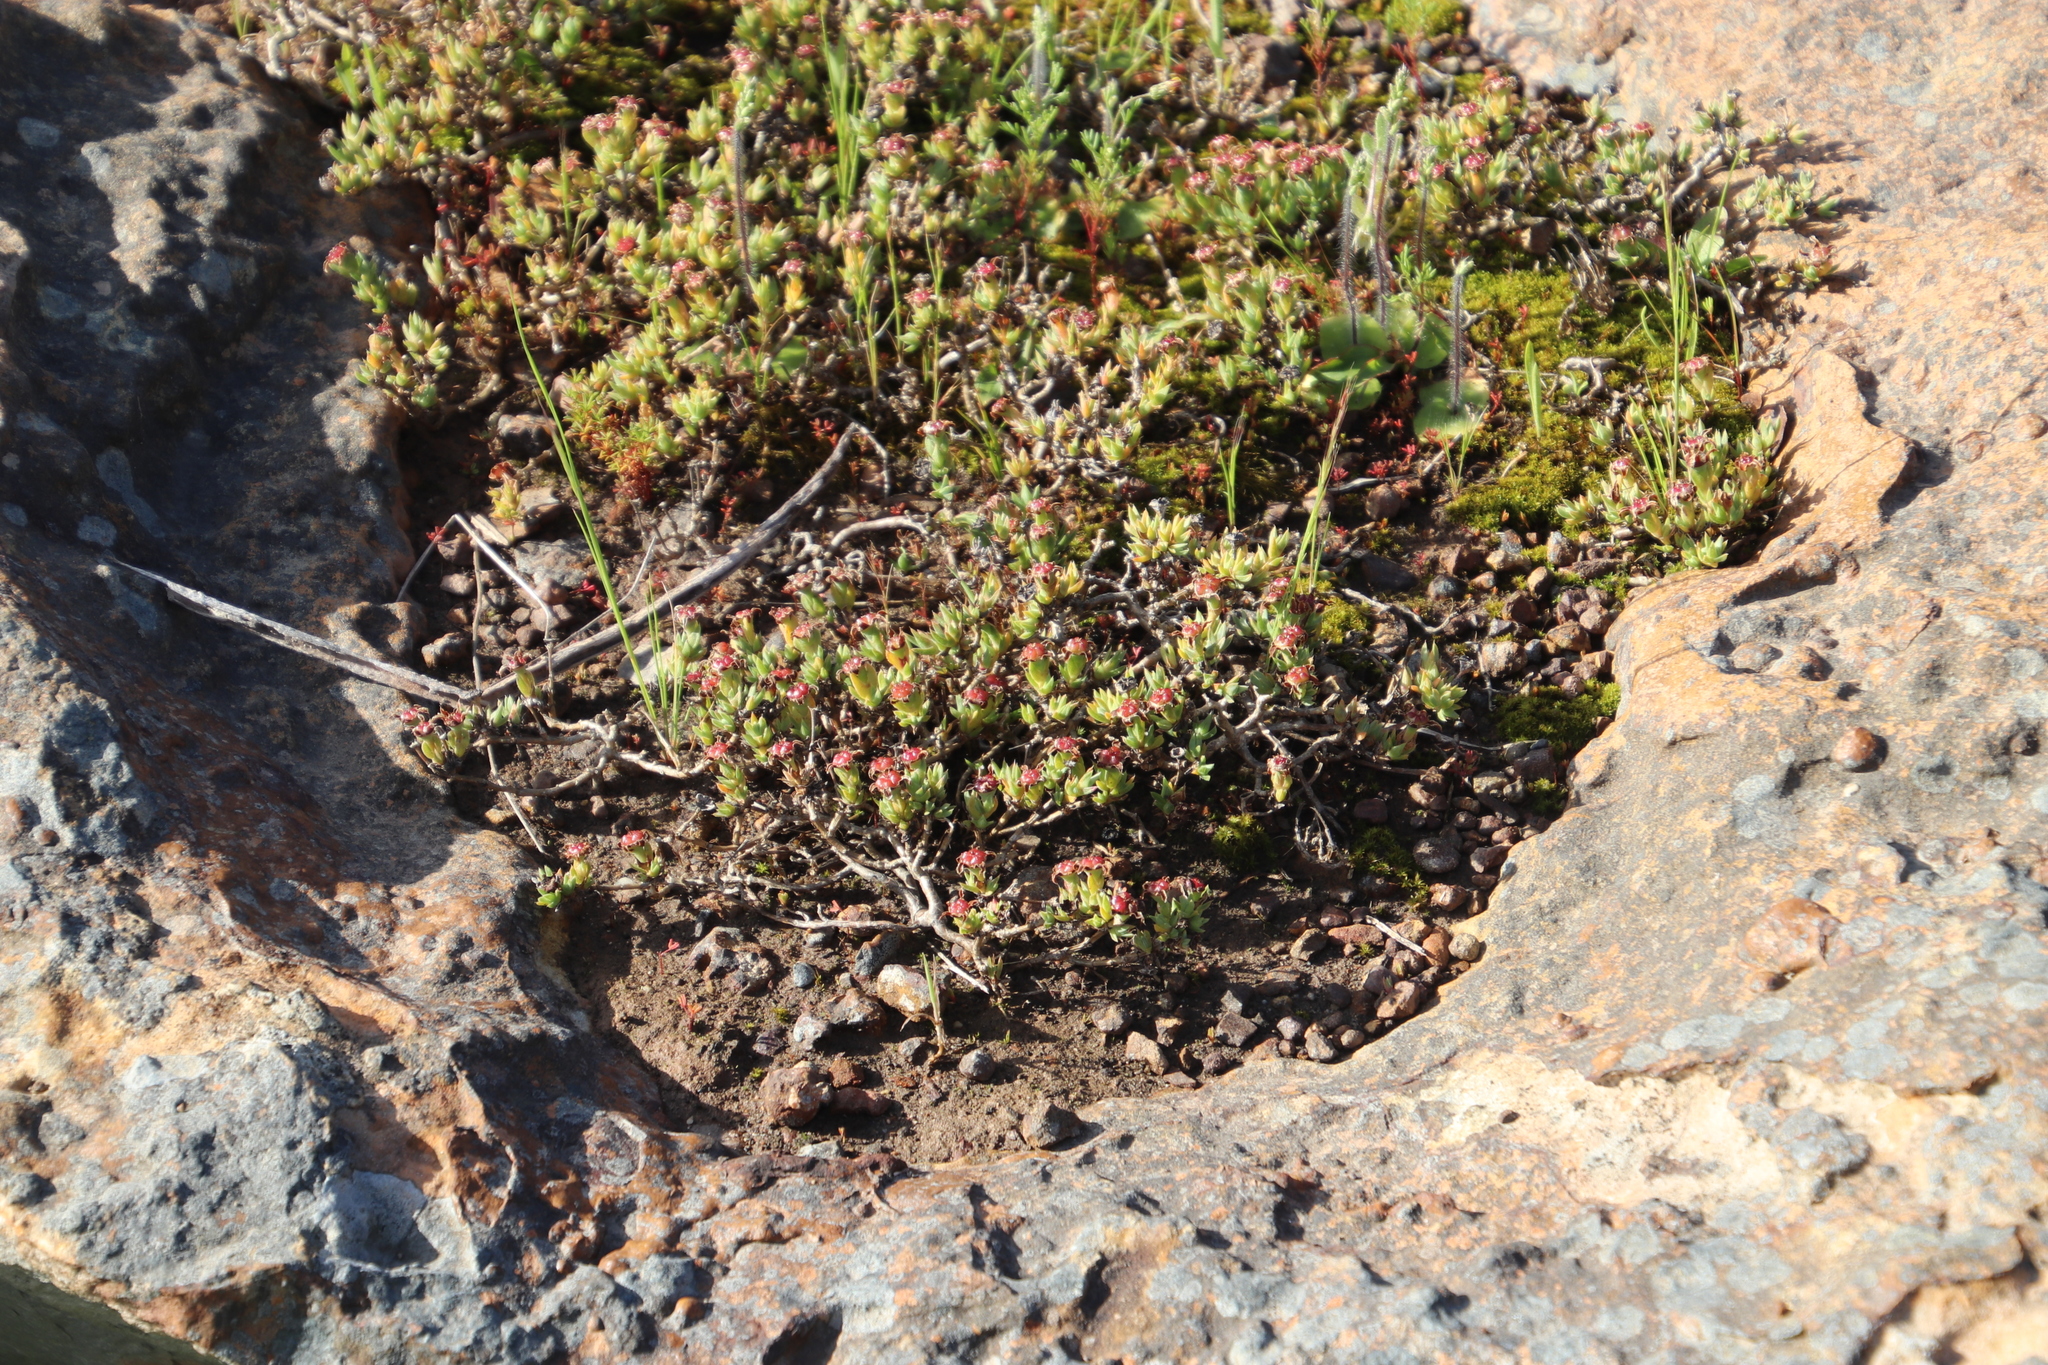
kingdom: Plantae
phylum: Tracheophyta
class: Magnoliopsida
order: Caryophyllales
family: Aizoaceae
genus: Antimima
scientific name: Antimima aristulata
